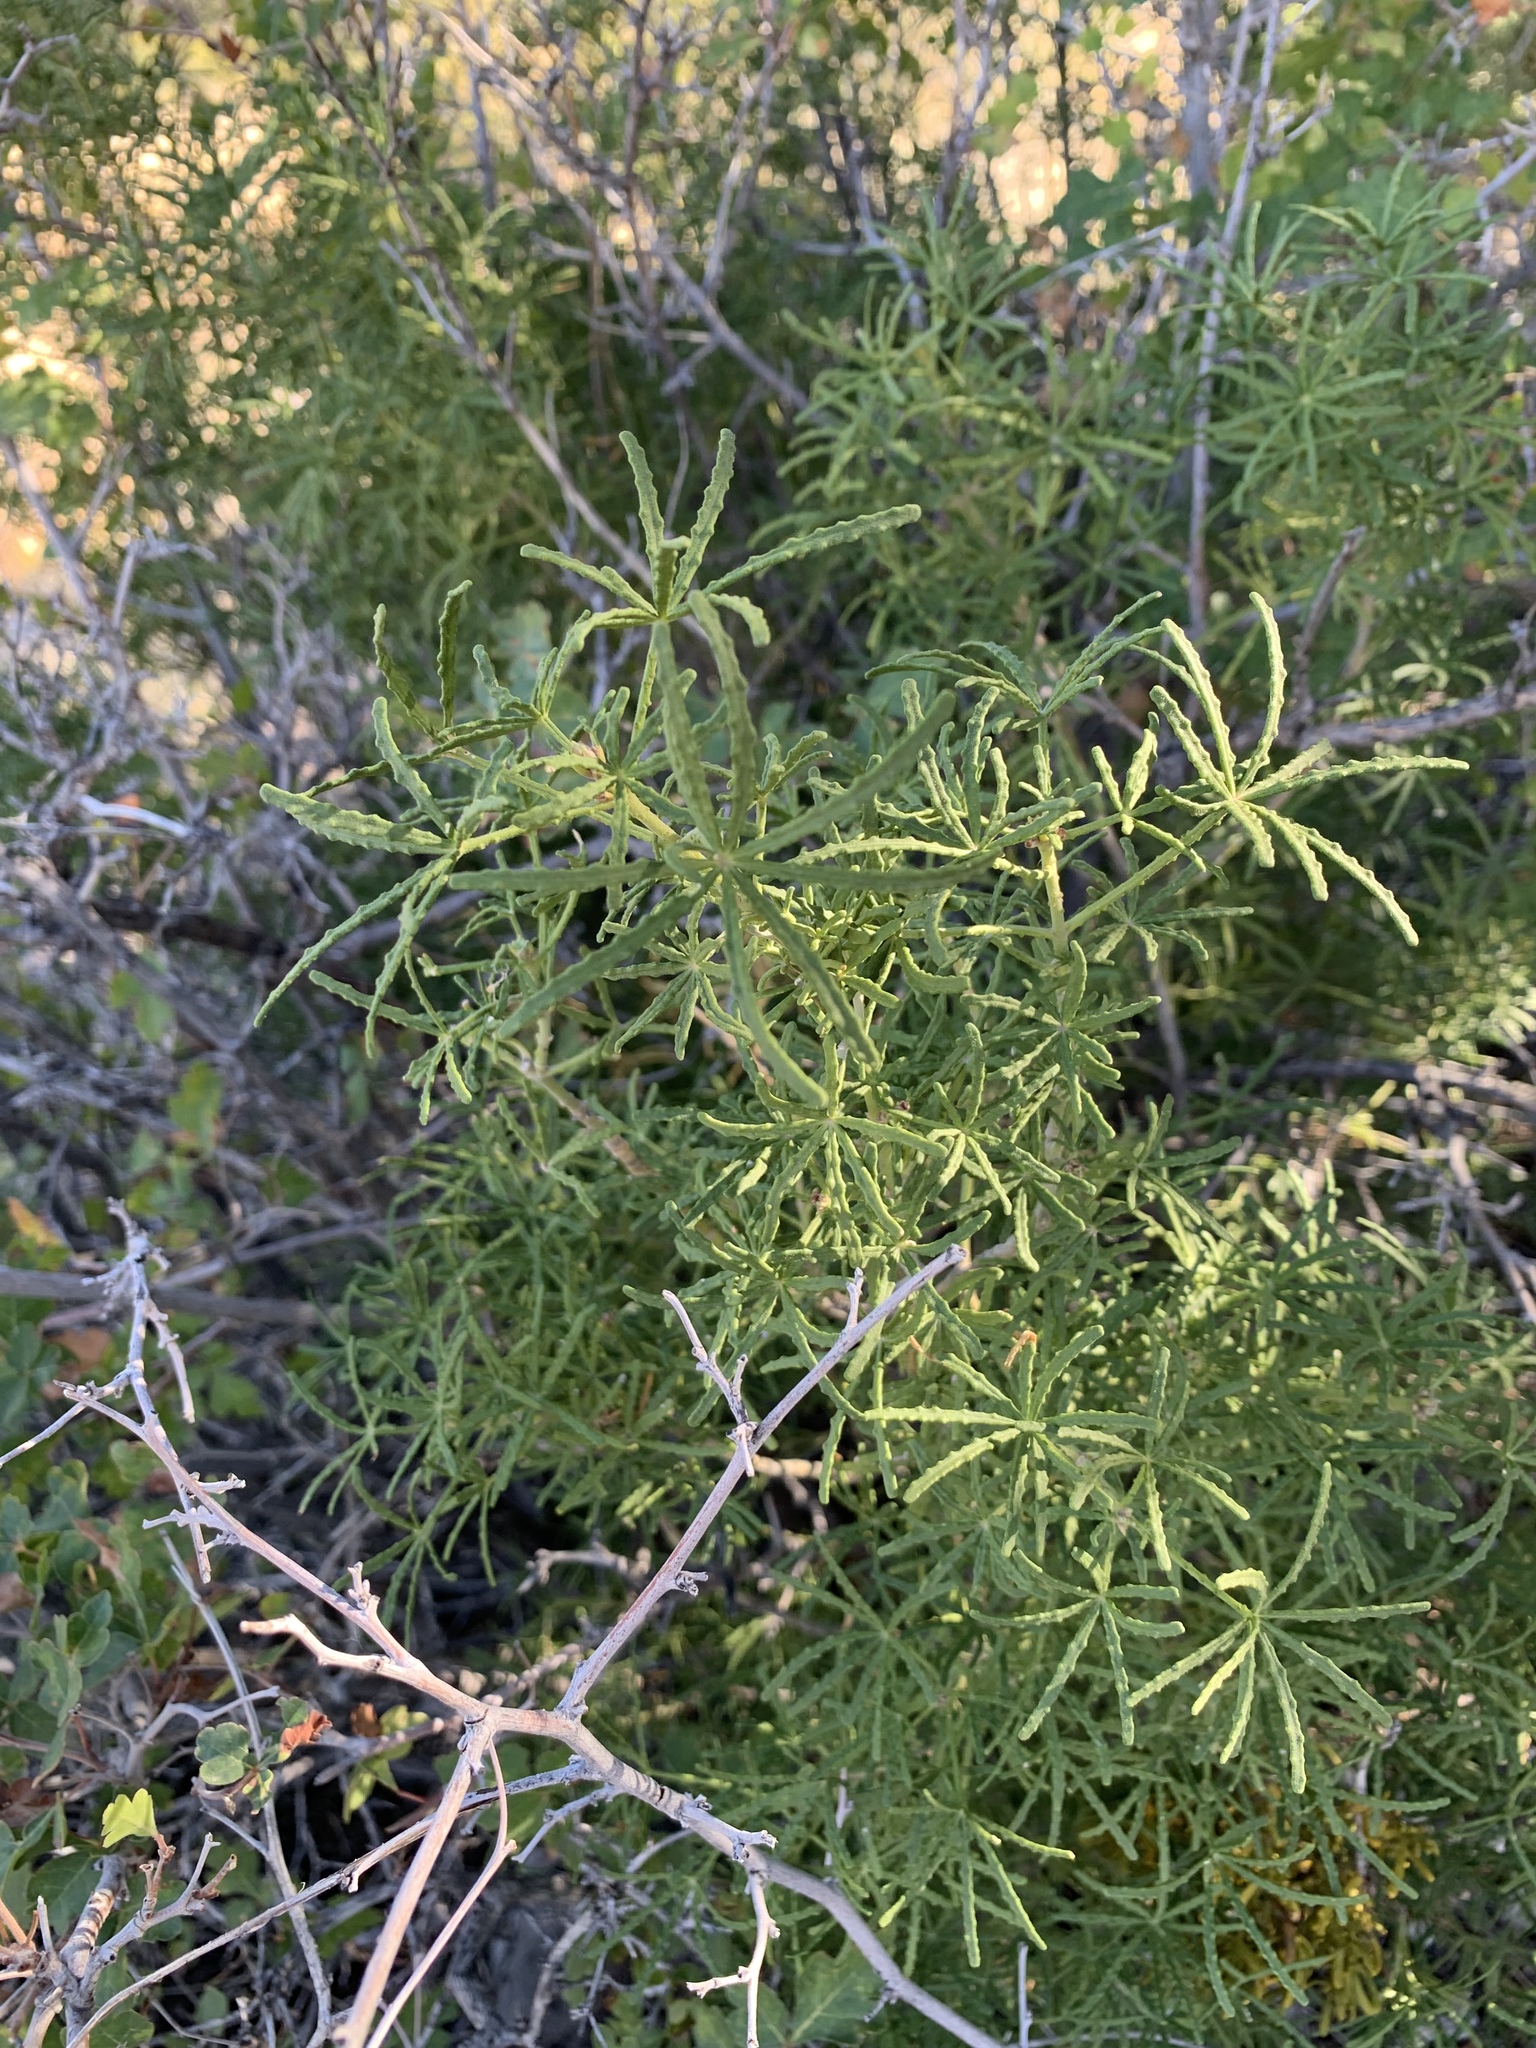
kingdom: Plantae
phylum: Tracheophyta
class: Magnoliopsida
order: Sapindales
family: Rutaceae
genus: Choisya
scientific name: Choisya dumosa
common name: Mexican-orange
